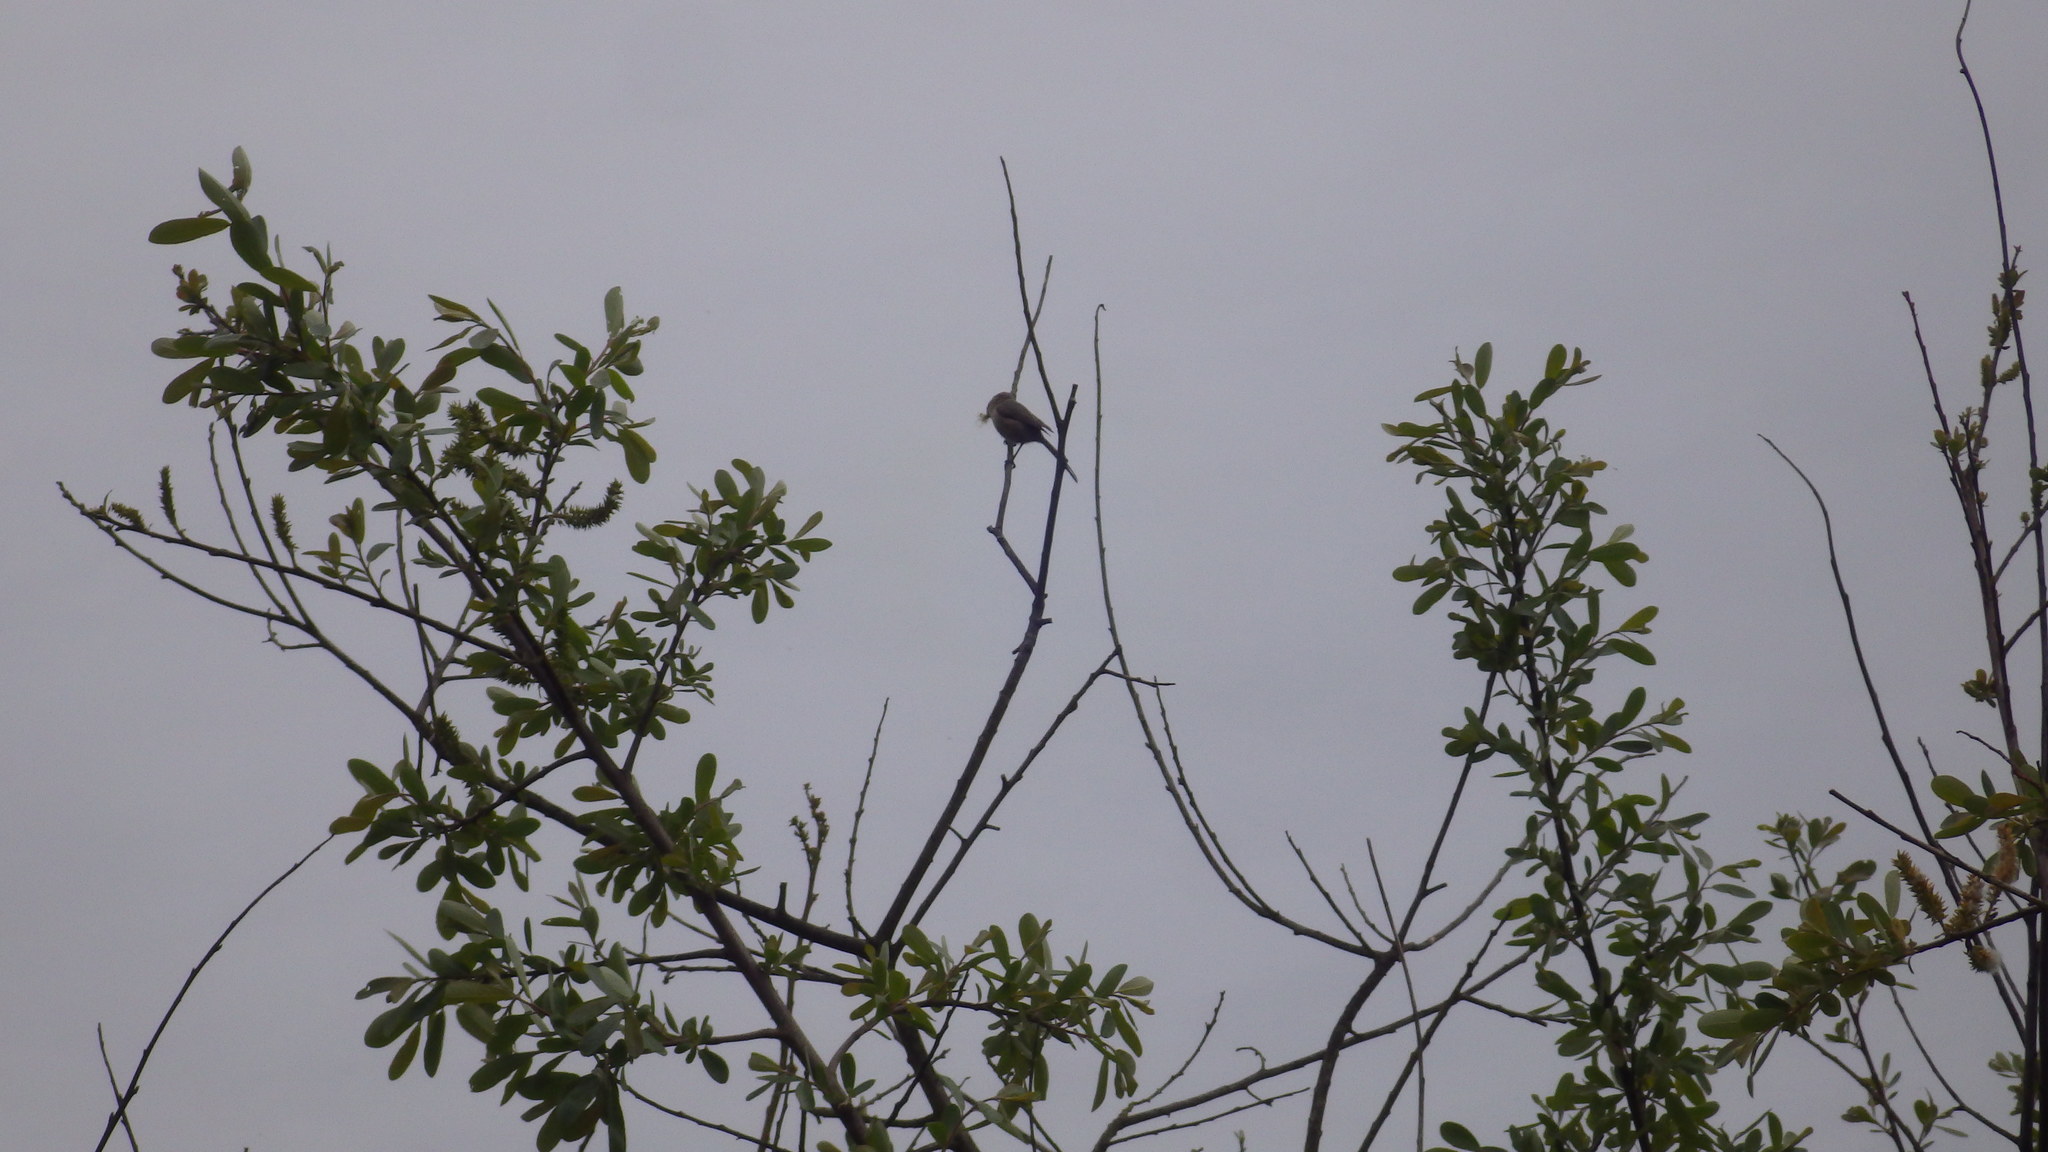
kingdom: Animalia
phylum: Chordata
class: Aves
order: Passeriformes
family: Aegithalidae
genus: Psaltriparus
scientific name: Psaltriparus minimus
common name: American bushtit
